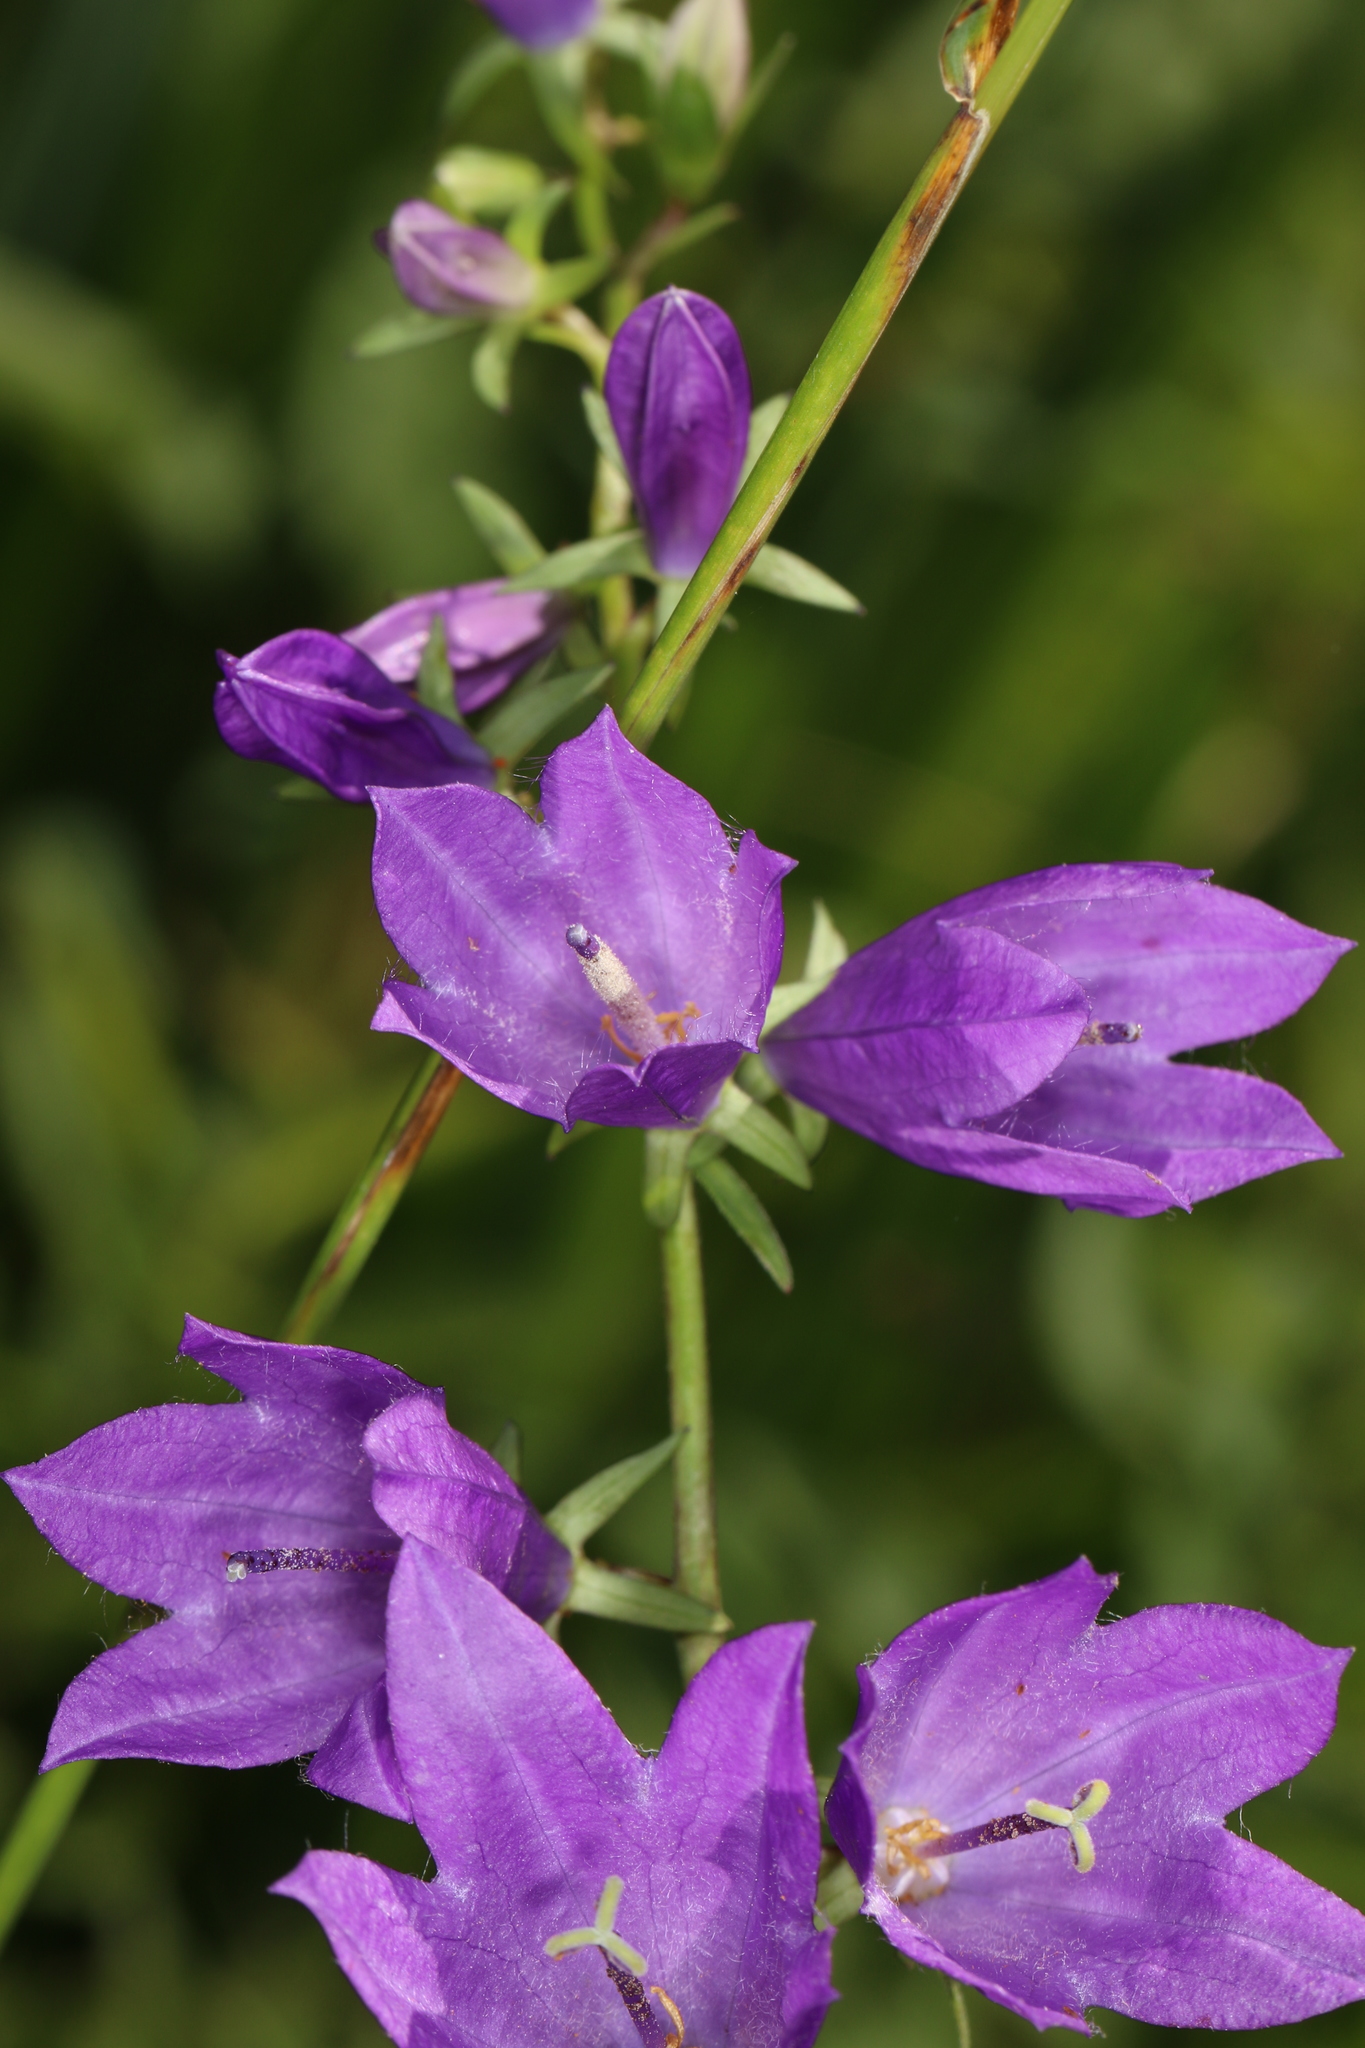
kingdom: Plantae
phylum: Tracheophyta
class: Magnoliopsida
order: Asterales
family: Campanulaceae
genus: Campanula
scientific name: Campanula rapunculoides
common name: Creeping bellflower
